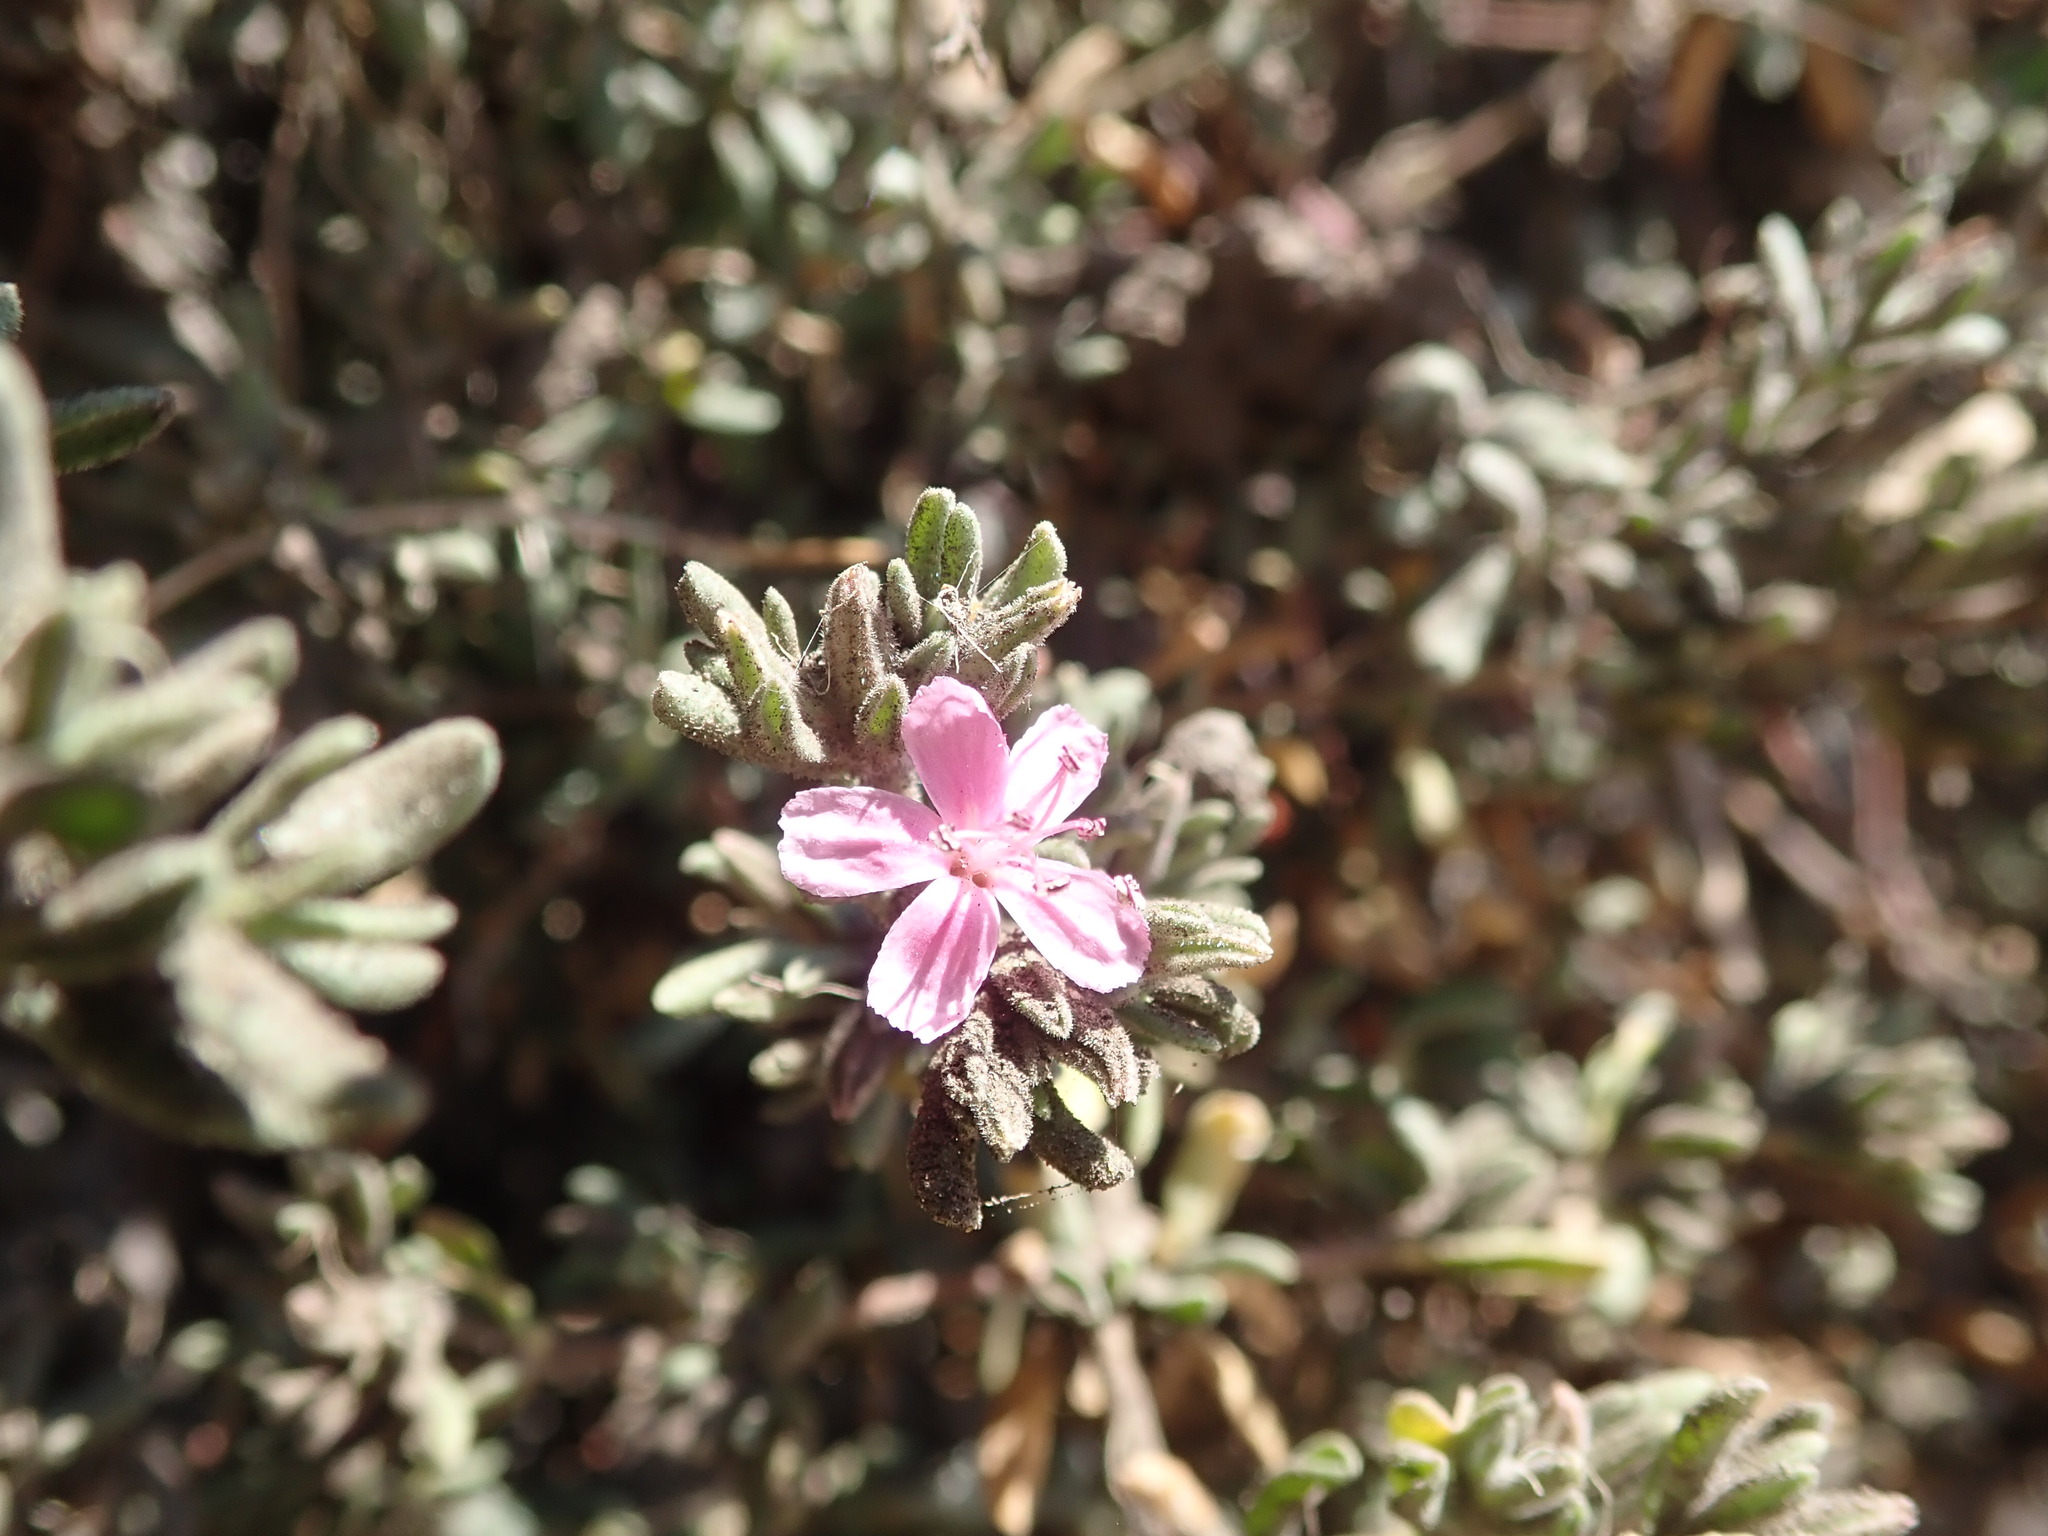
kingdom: Plantae
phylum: Tracheophyta
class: Magnoliopsida
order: Caryophyllales
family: Frankeniaceae
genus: Frankenia
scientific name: Frankenia salina
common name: Alkali seaheath
